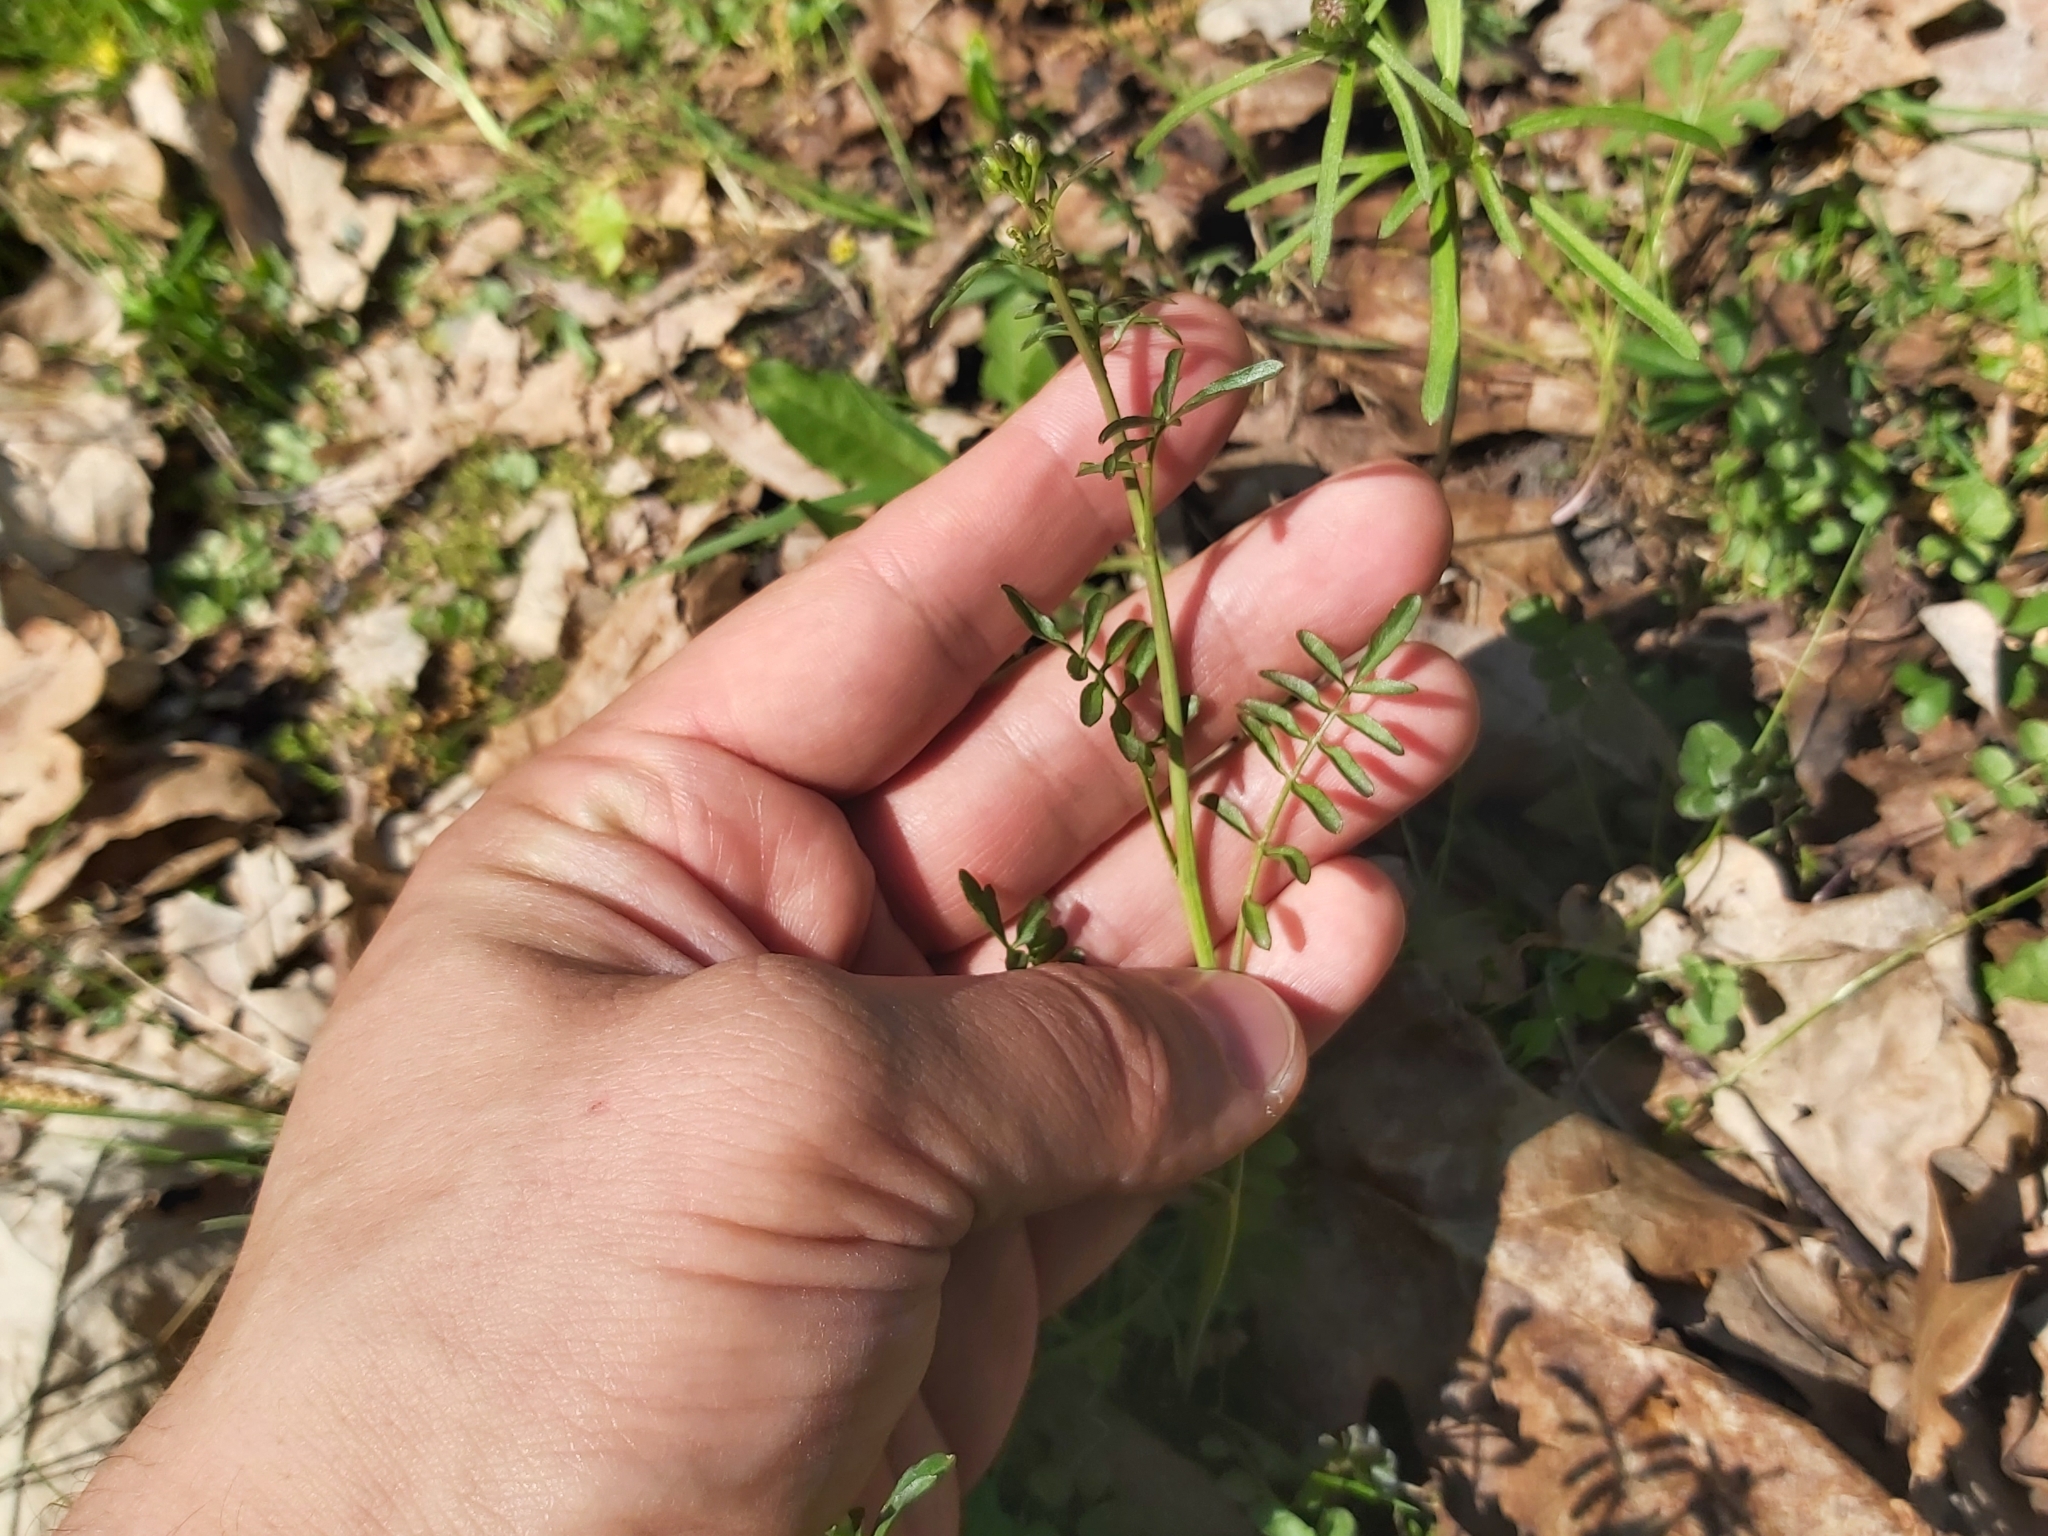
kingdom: Plantae
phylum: Tracheophyta
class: Magnoliopsida
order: Brassicales
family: Brassicaceae
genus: Cardamine
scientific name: Cardamine pratensis
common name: Cuckoo flower
